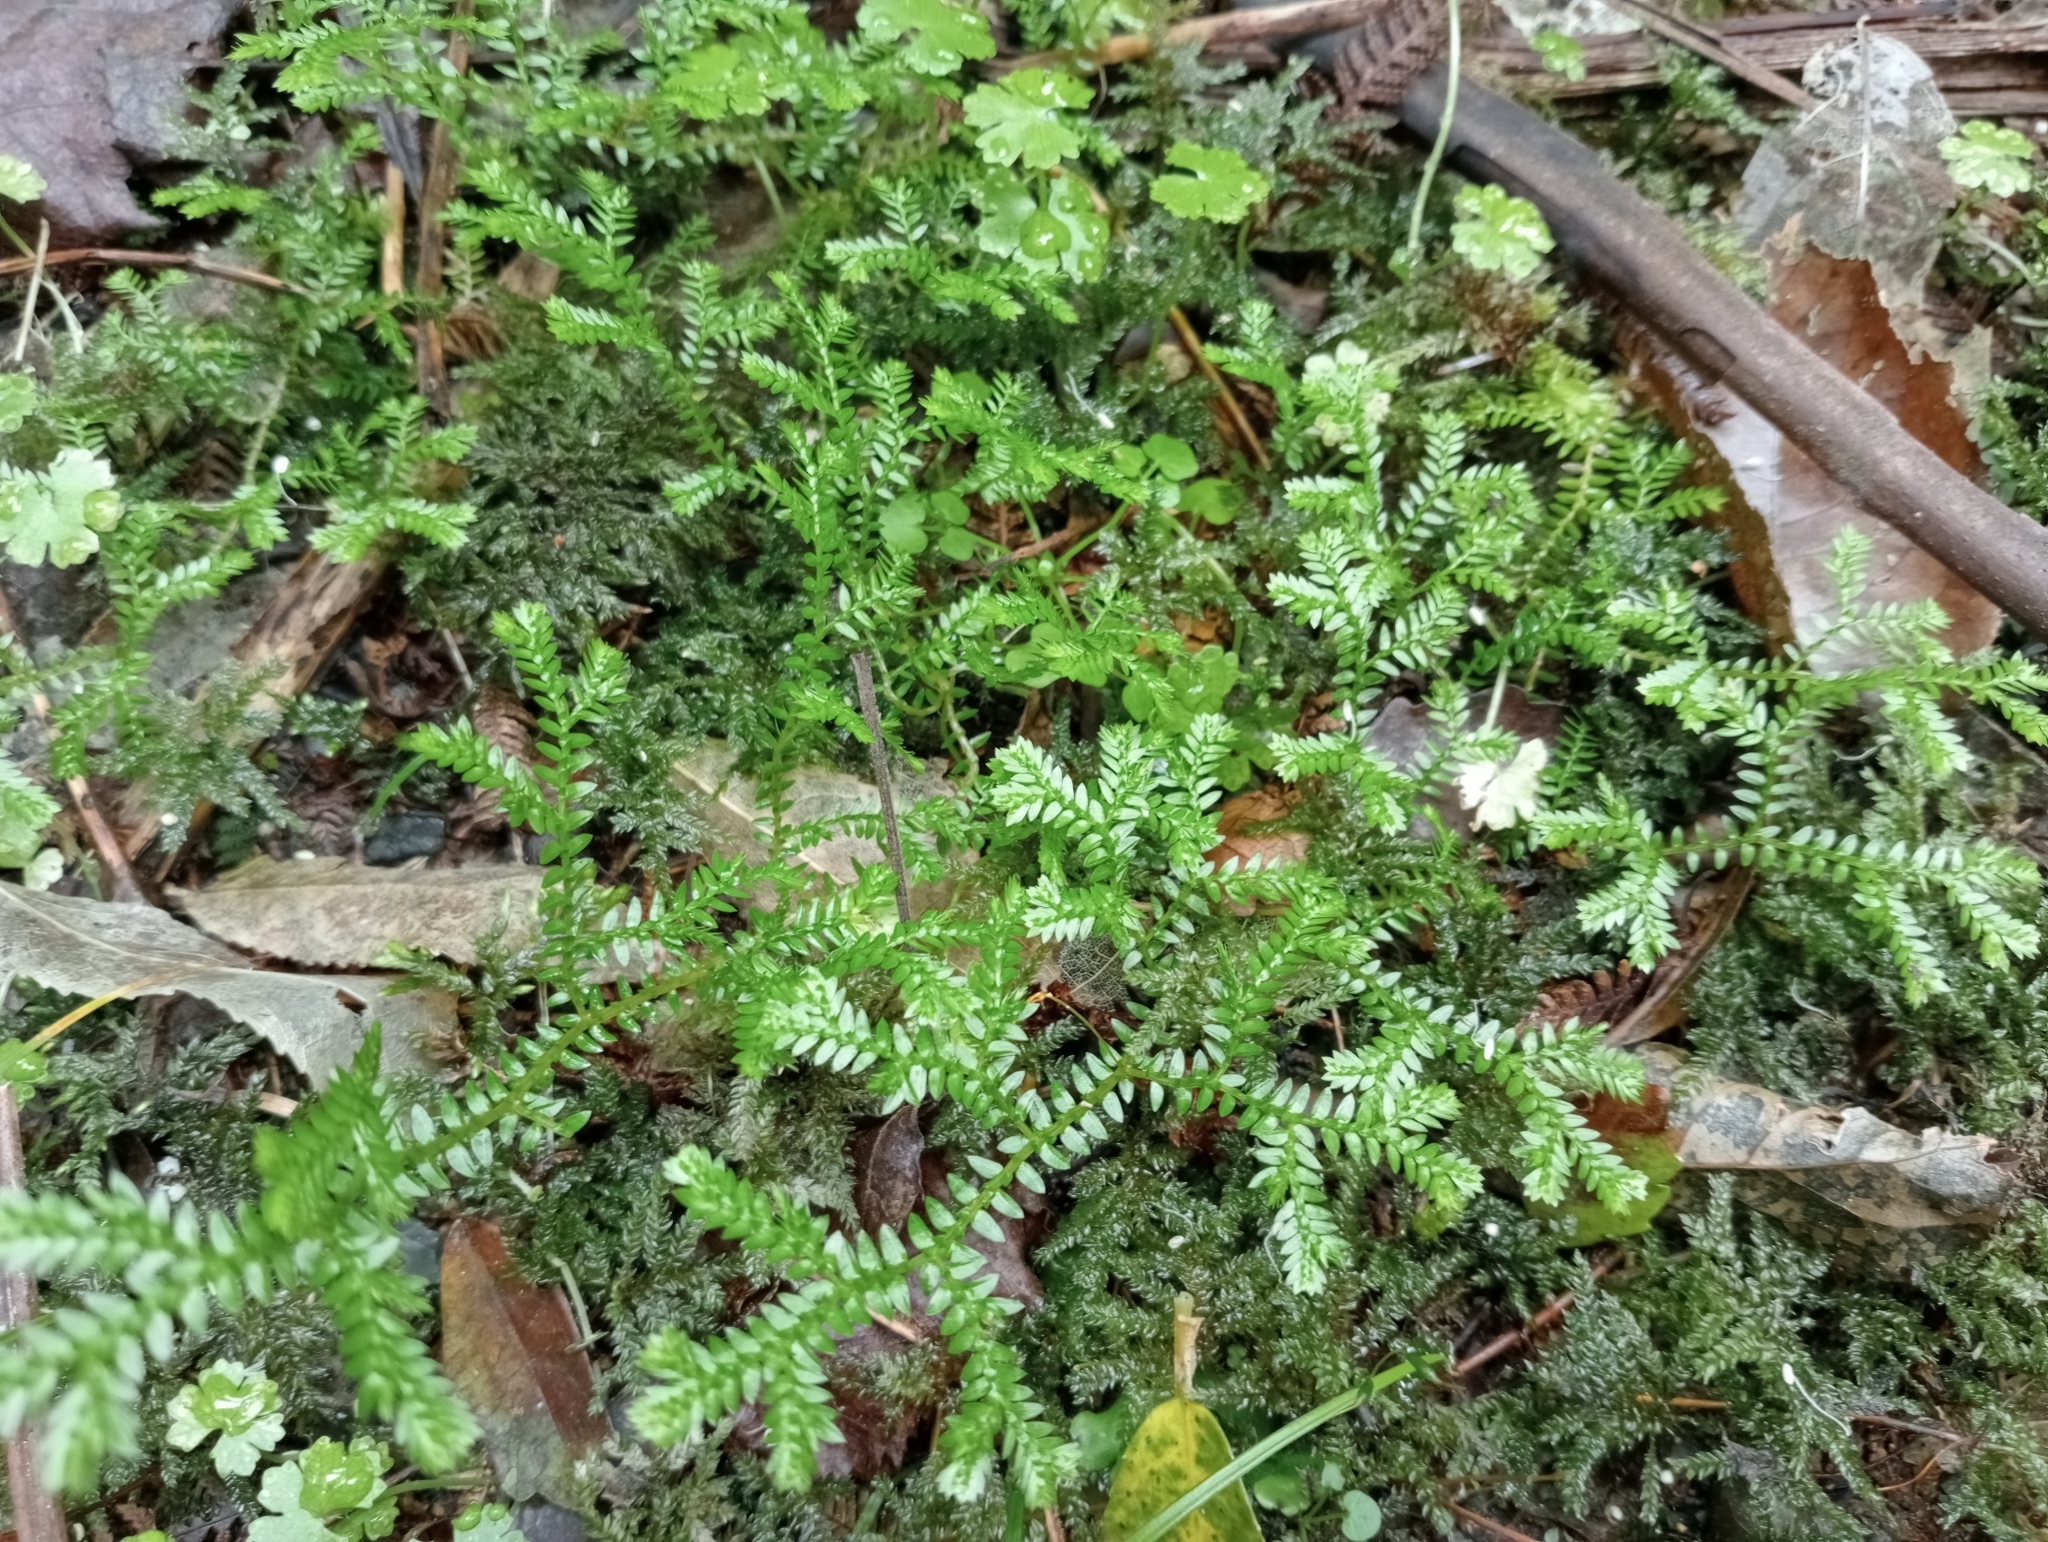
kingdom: Plantae
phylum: Tracheophyta
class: Lycopodiopsida
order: Selaginellales
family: Selaginellaceae
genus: Selaginella
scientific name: Selaginella kraussiana
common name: Krauss' spikemoss
